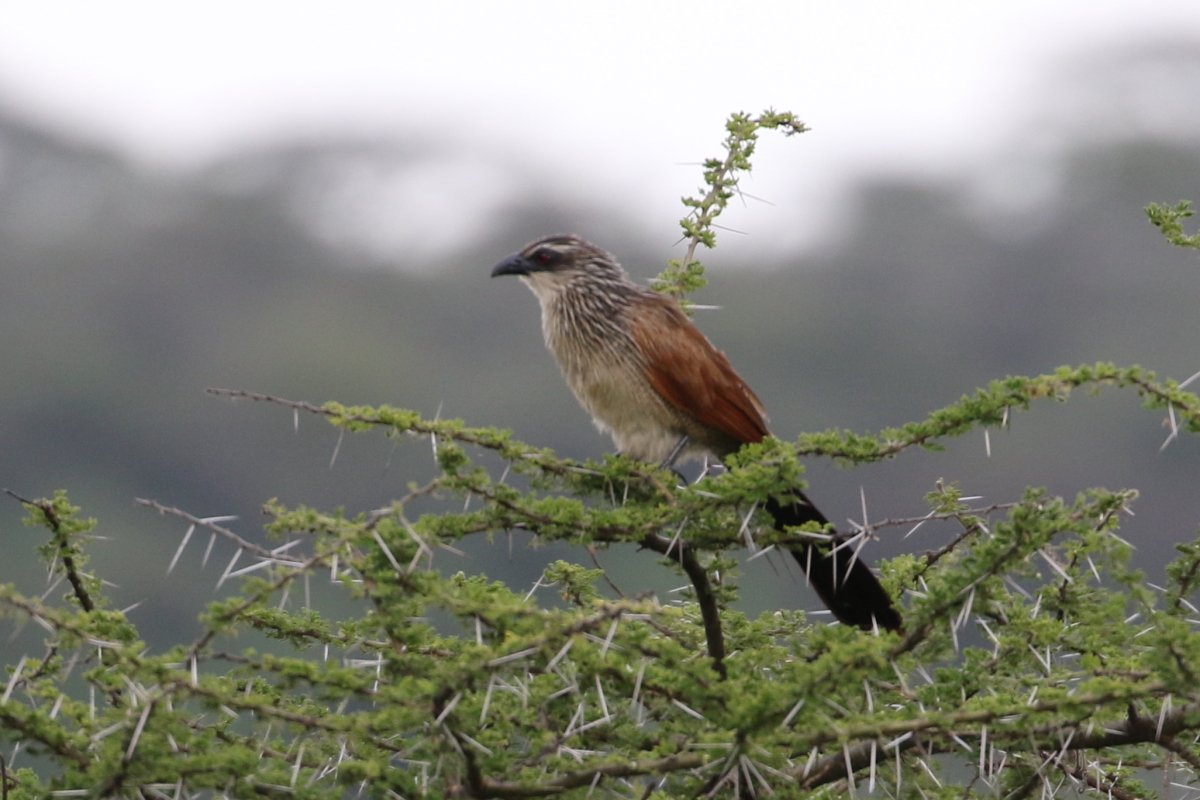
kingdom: Animalia
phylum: Chordata
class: Aves
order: Cuculiformes
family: Cuculidae
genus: Centropus
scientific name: Centropus superciliosus
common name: White-browed coucal
